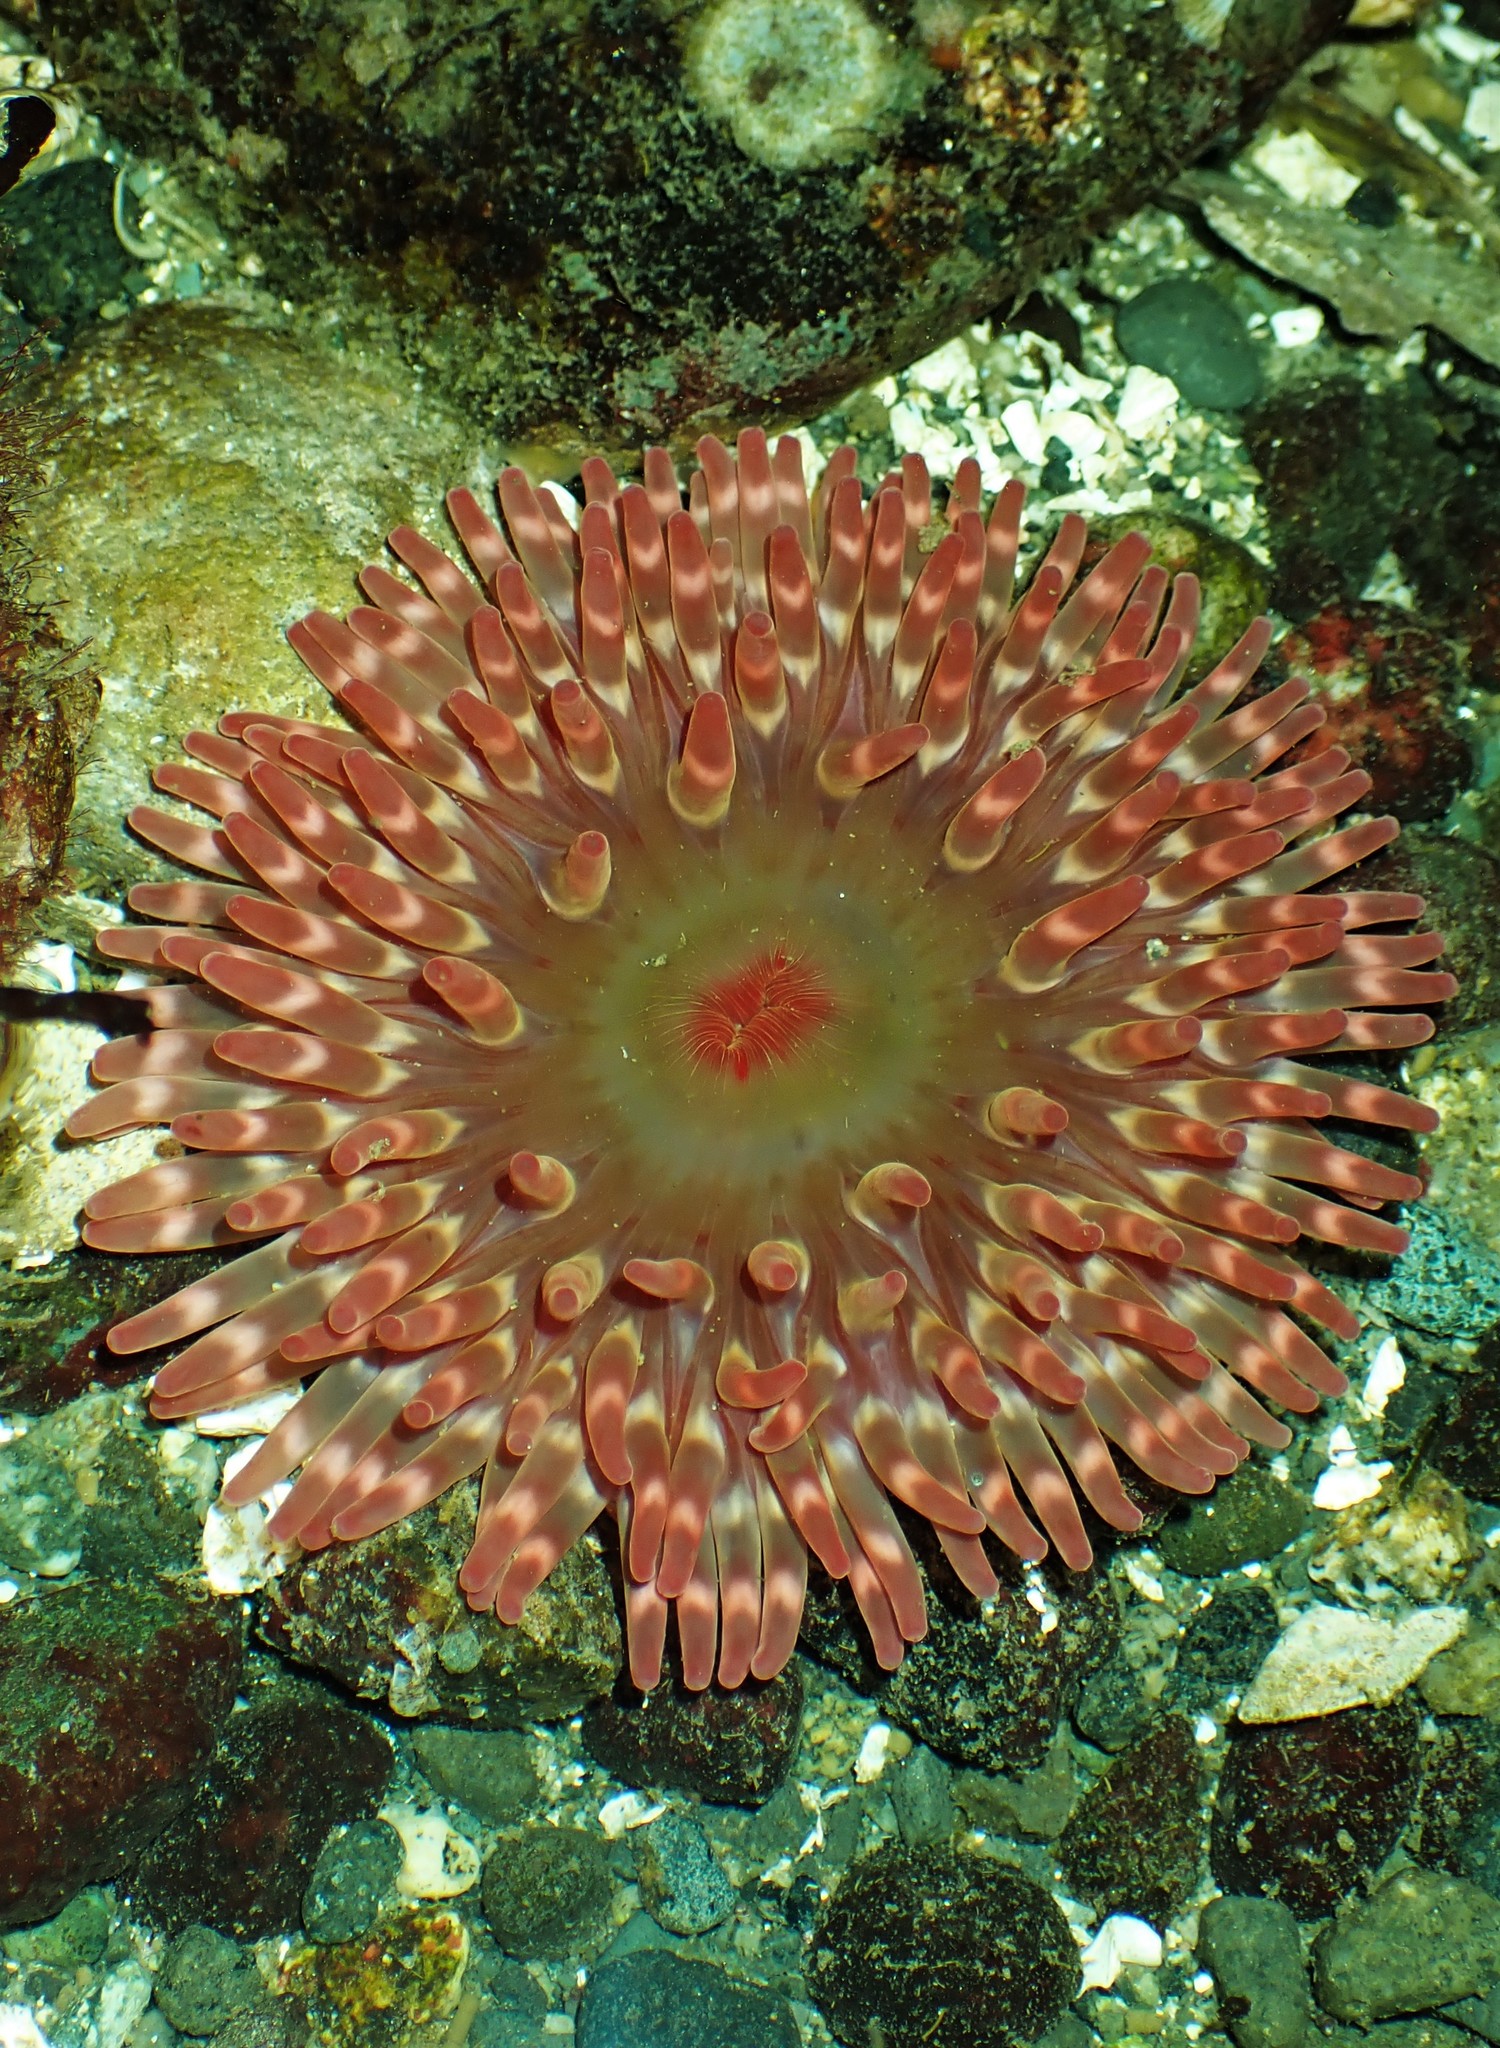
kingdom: Animalia
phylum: Cnidaria
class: Anthozoa
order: Actiniaria
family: Actiniidae
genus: Urticina
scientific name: Urticina clandestina
